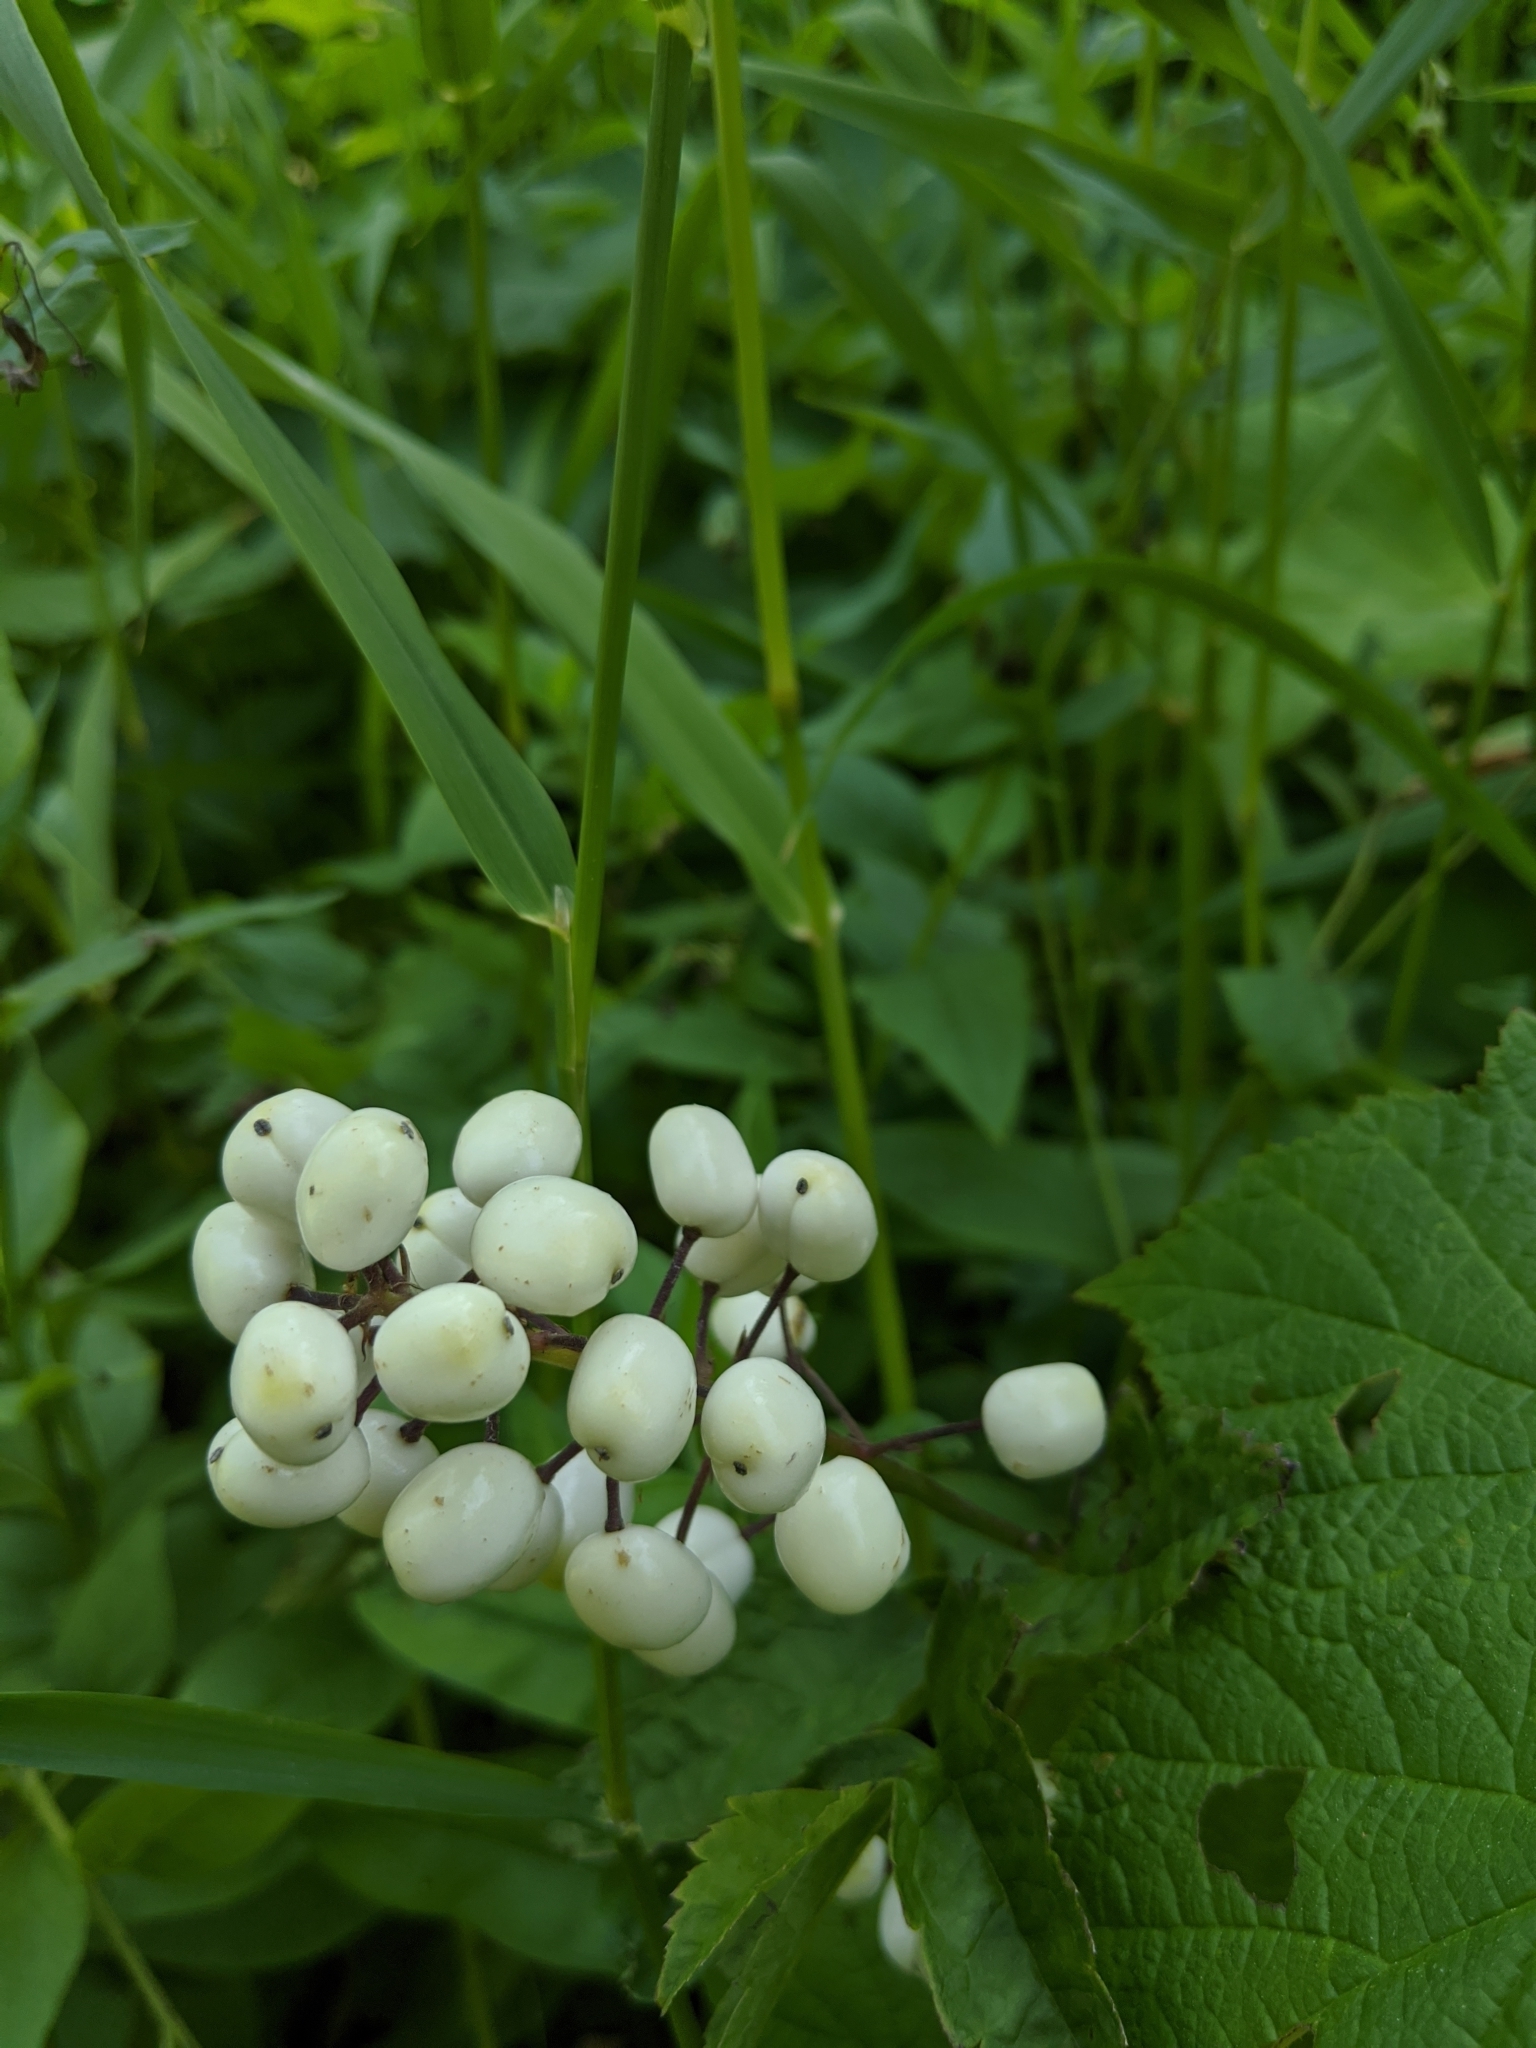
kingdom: Plantae
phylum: Tracheophyta
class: Magnoliopsida
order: Ranunculales
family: Ranunculaceae
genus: Actaea
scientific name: Actaea rubra
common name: Red baneberry
